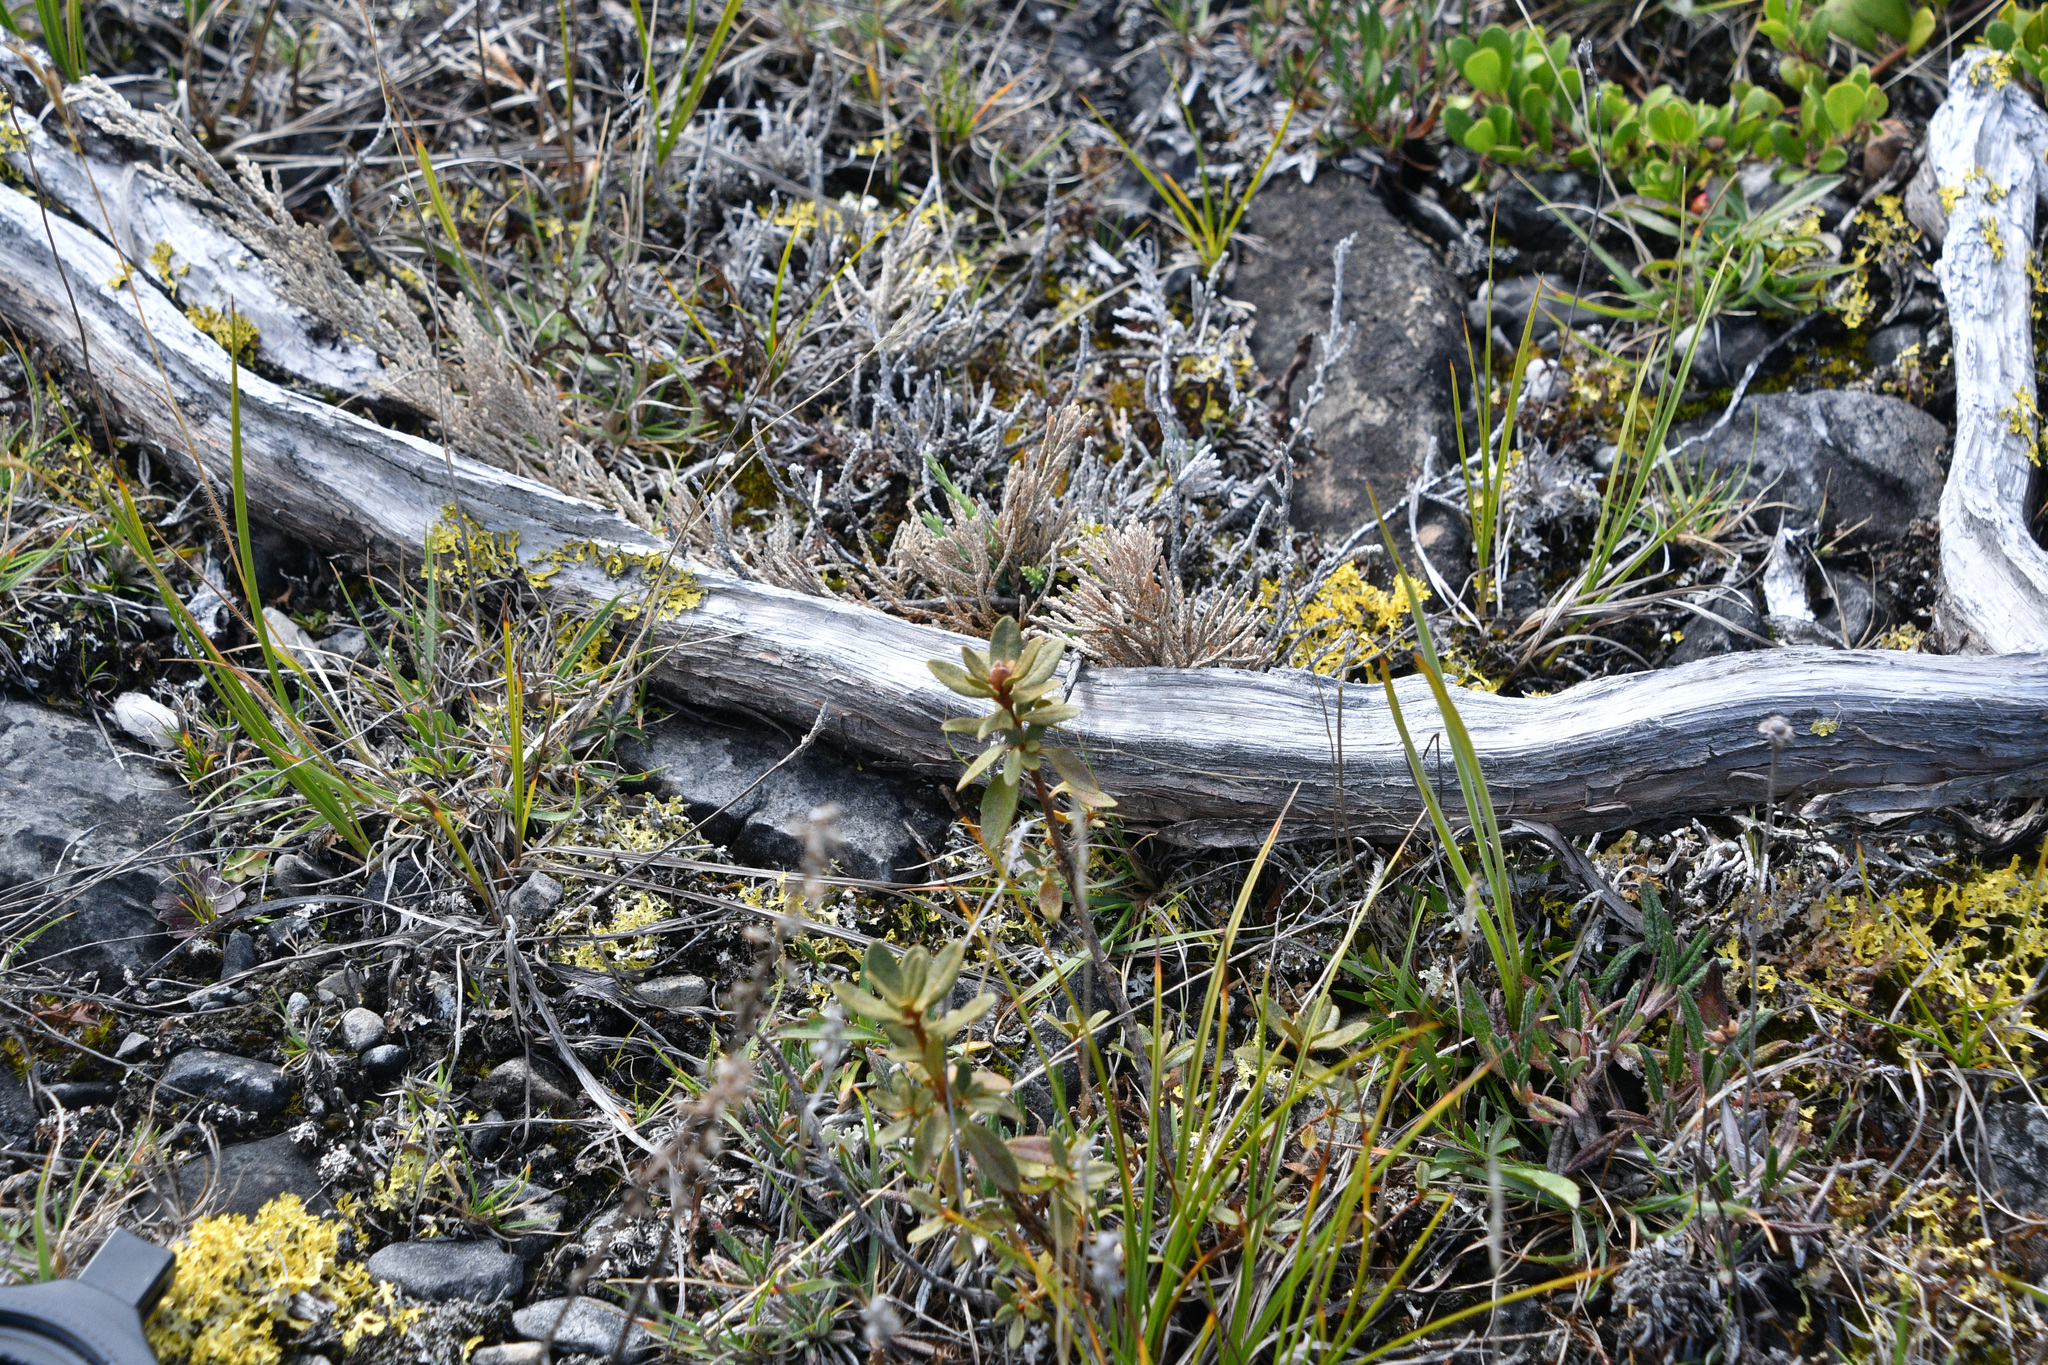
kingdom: Plantae
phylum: Tracheophyta
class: Magnoliopsida
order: Ericales
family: Ericaceae
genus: Rhododendron
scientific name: Rhododendron lapponicum
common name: Lapland rhododendron
